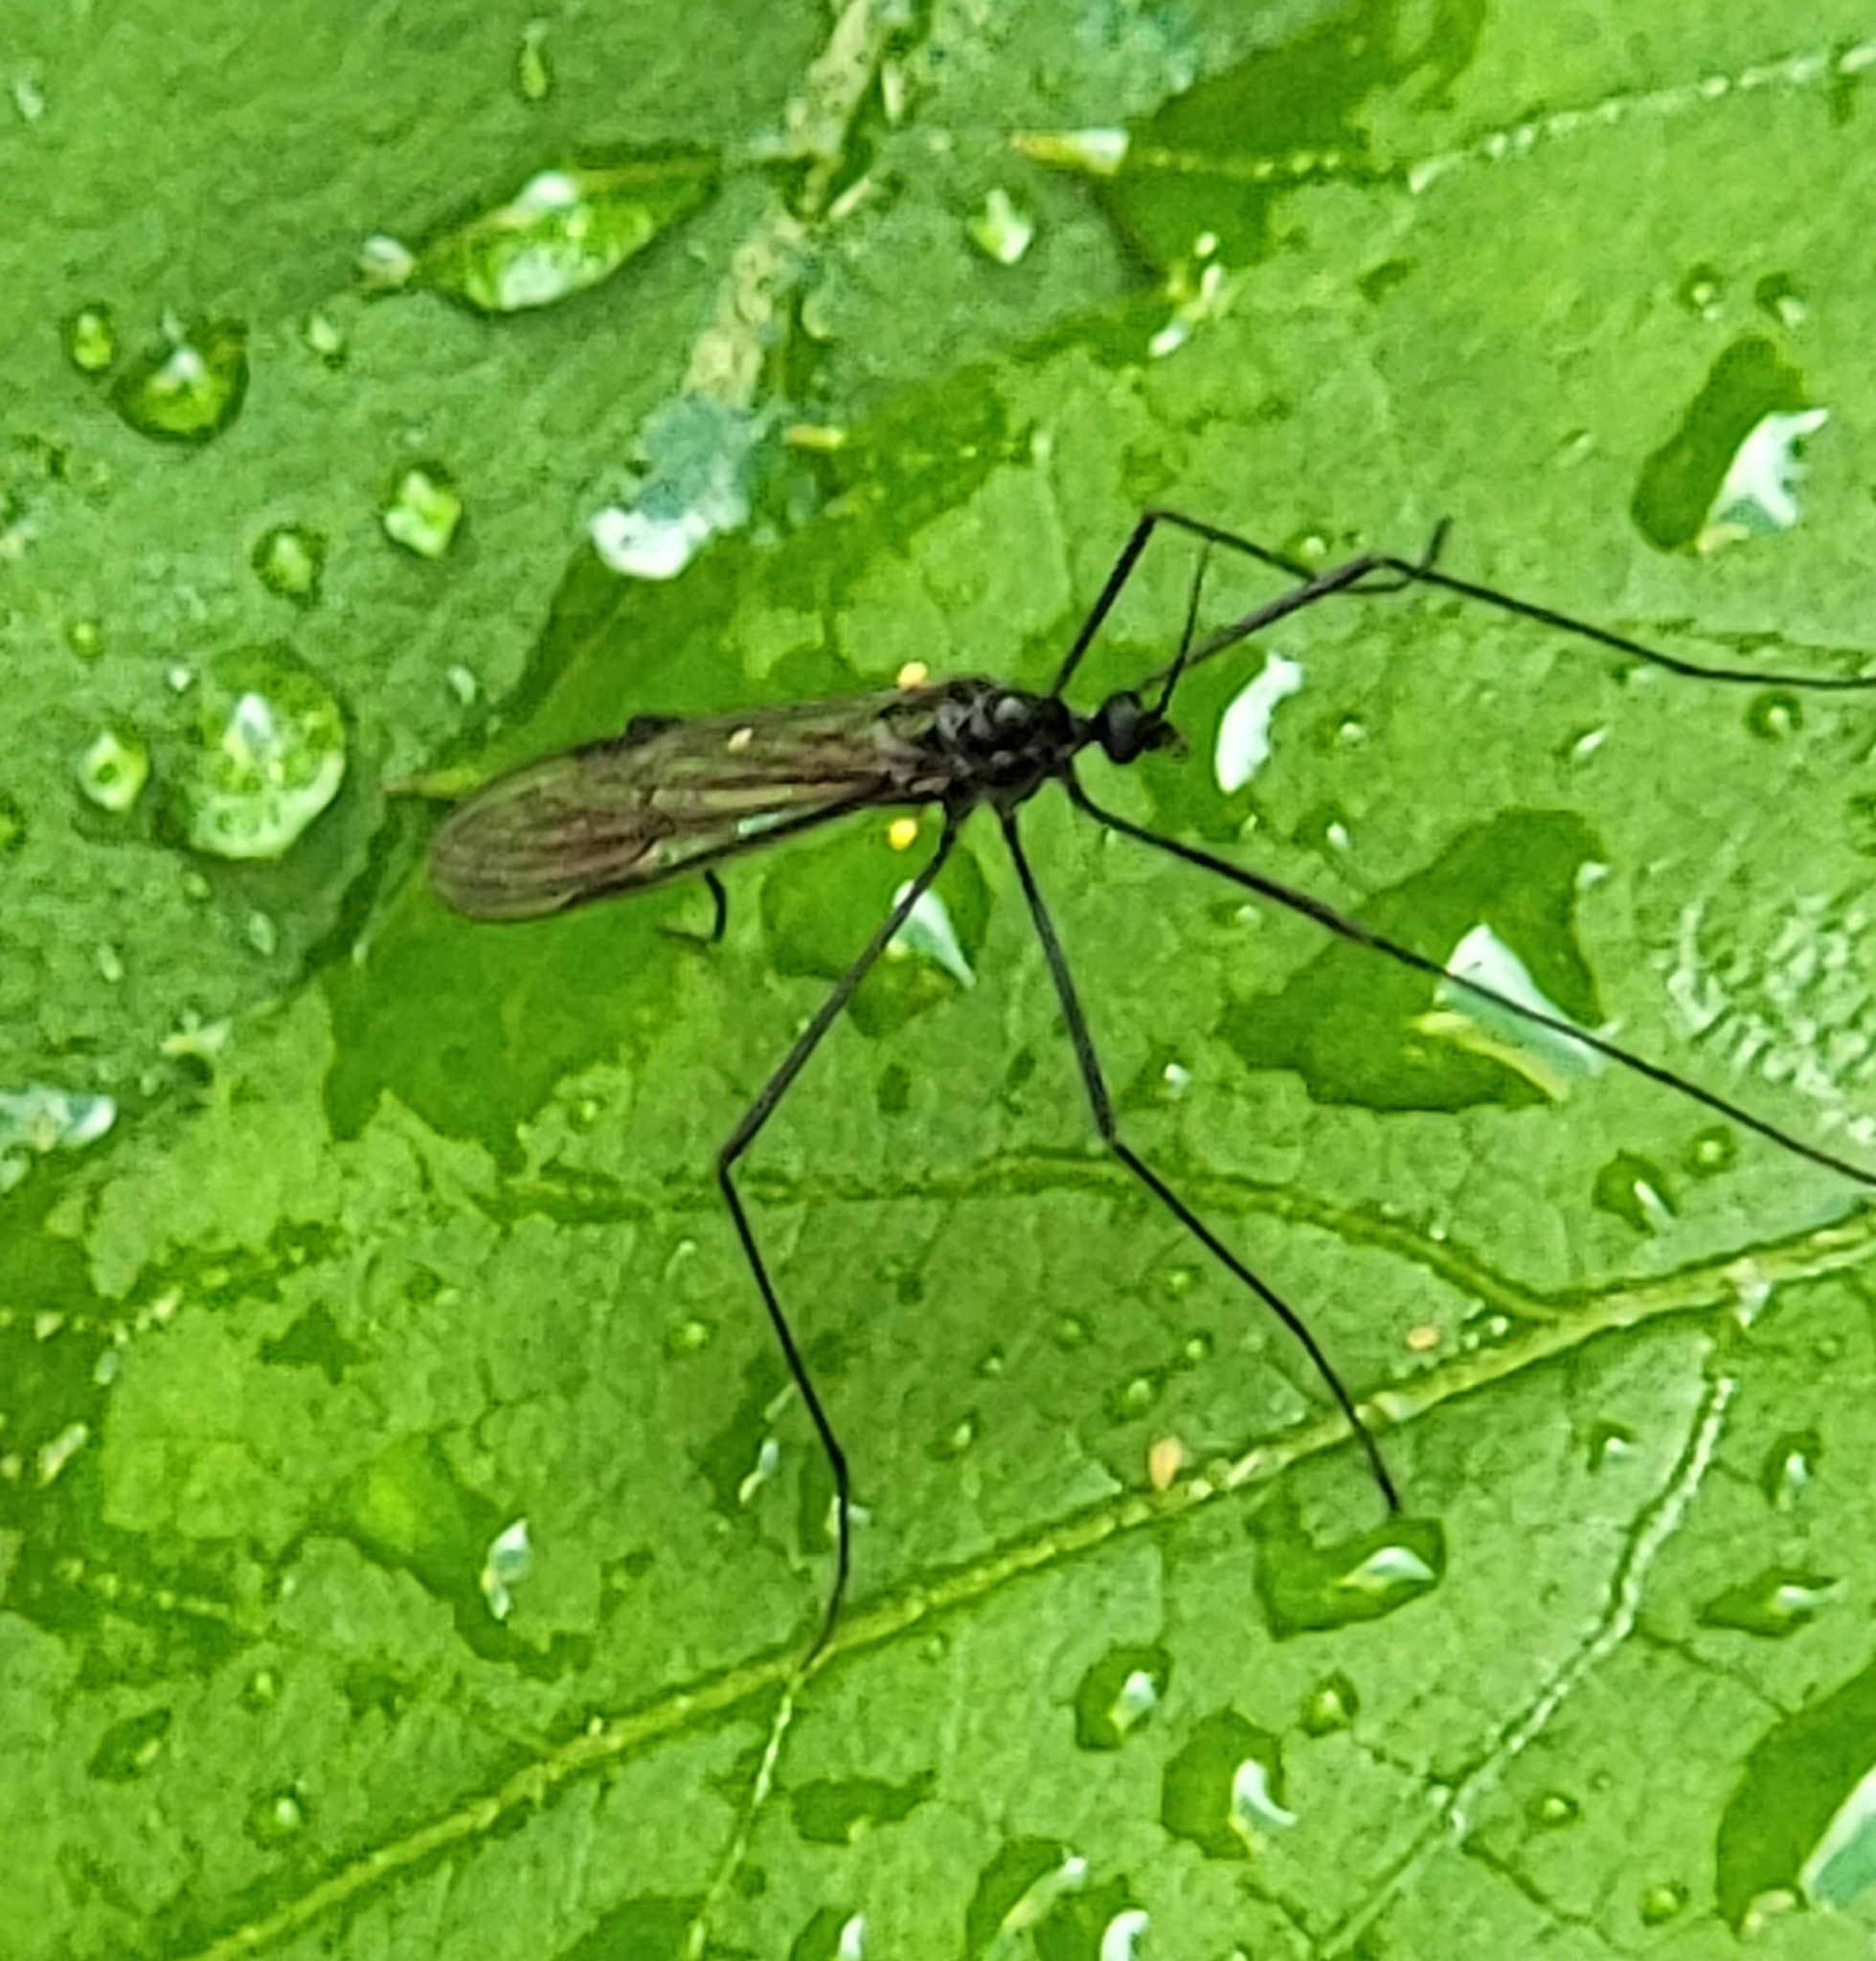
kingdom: Animalia
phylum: Arthropoda
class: Insecta
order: Diptera
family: Limoniidae
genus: Gnophomyia
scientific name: Gnophomyia tristissima
